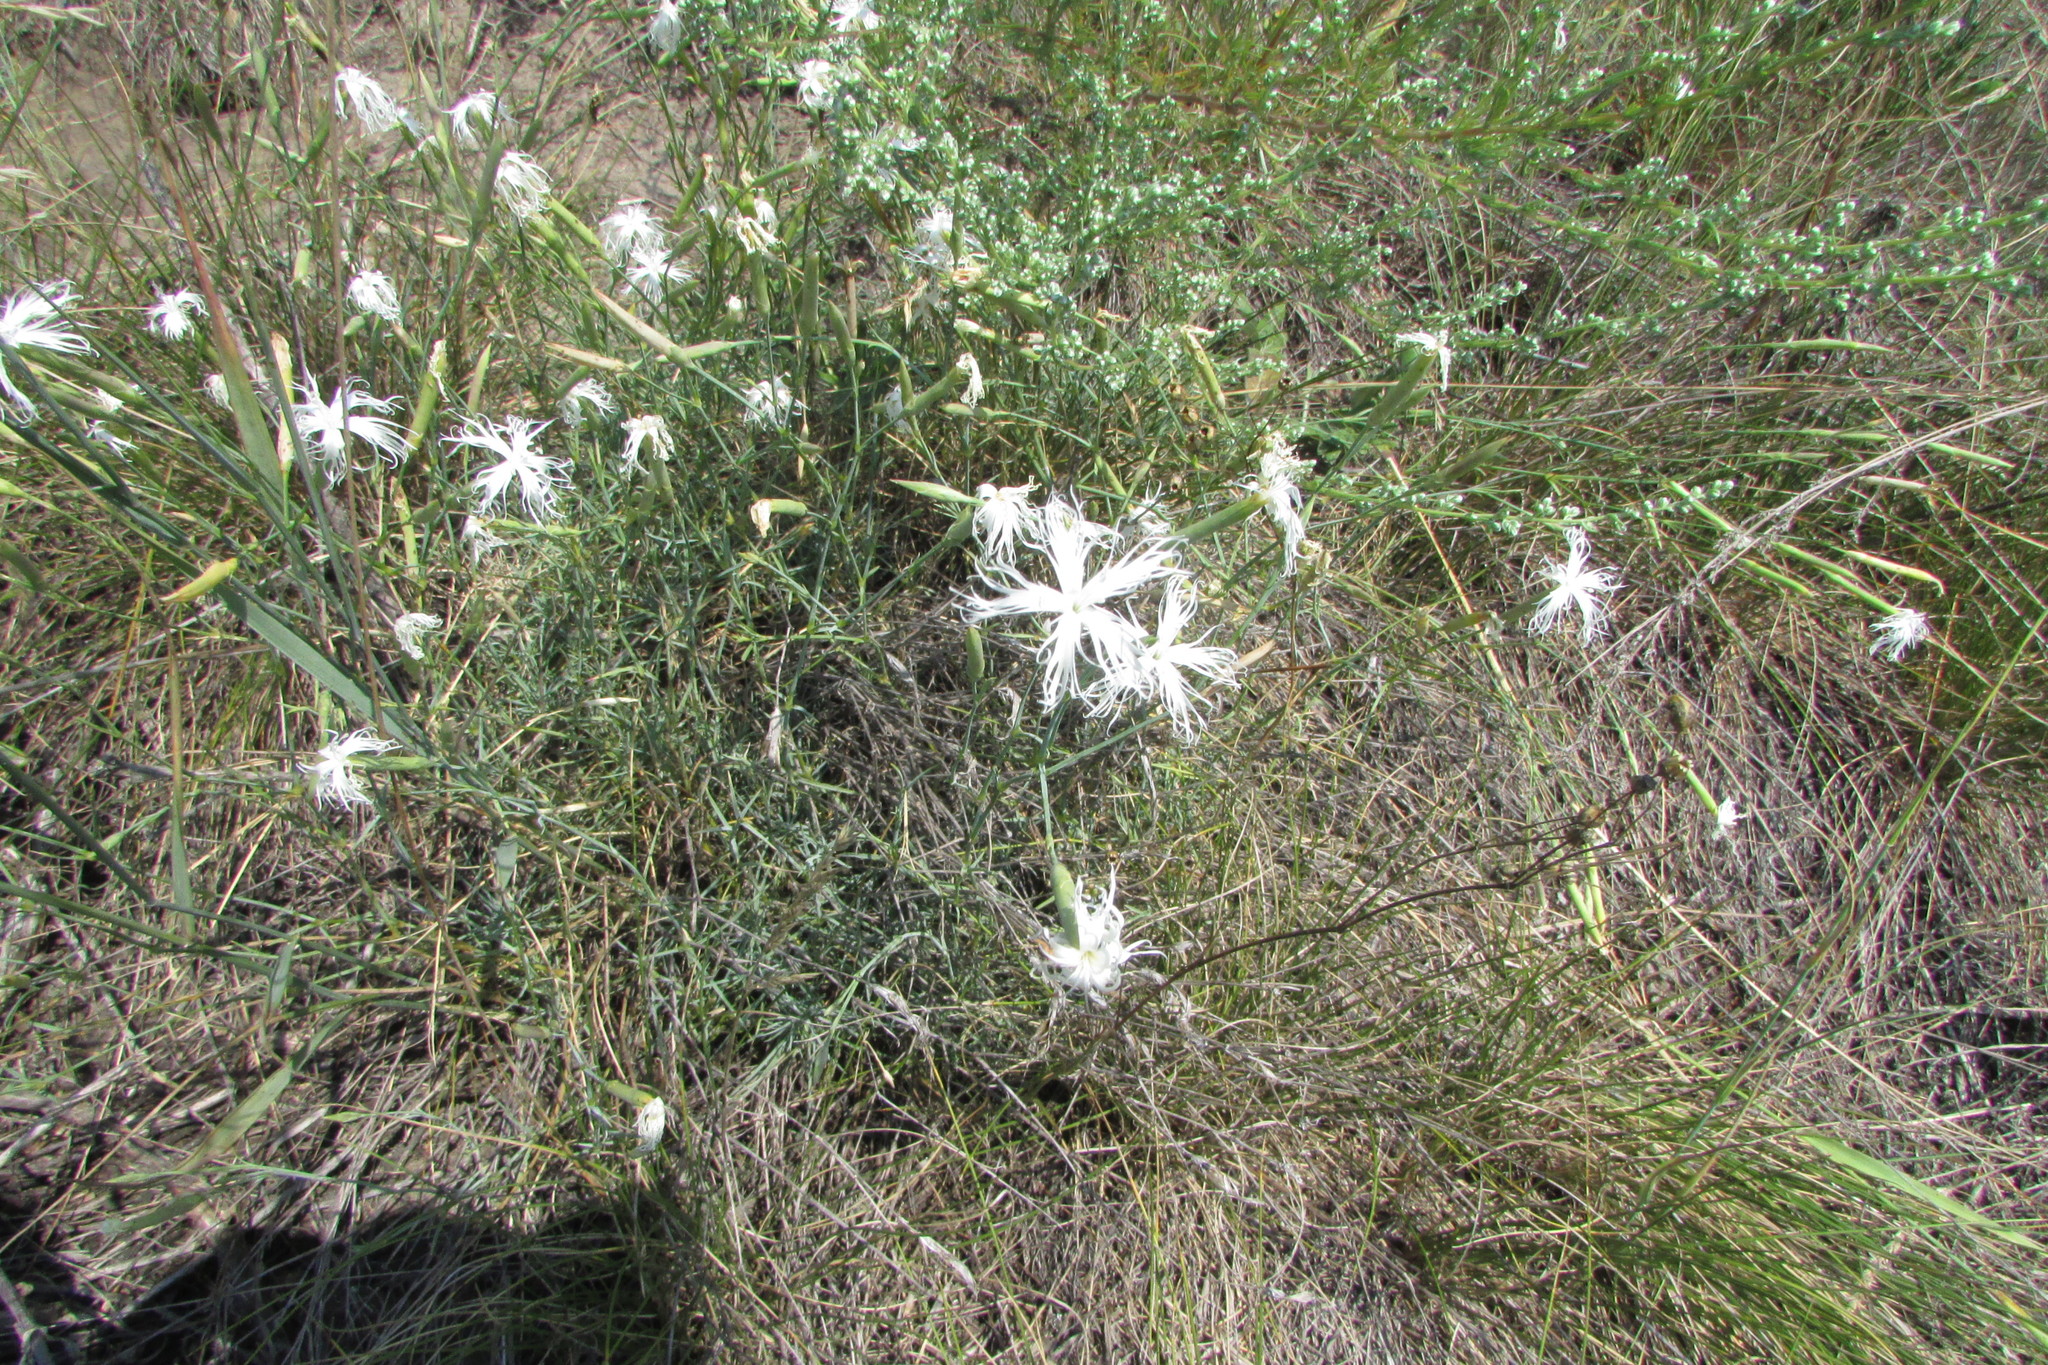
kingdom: Plantae
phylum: Tracheophyta
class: Magnoliopsida
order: Caryophyllales
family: Caryophyllaceae
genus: Dianthus
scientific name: Dianthus volgicus
